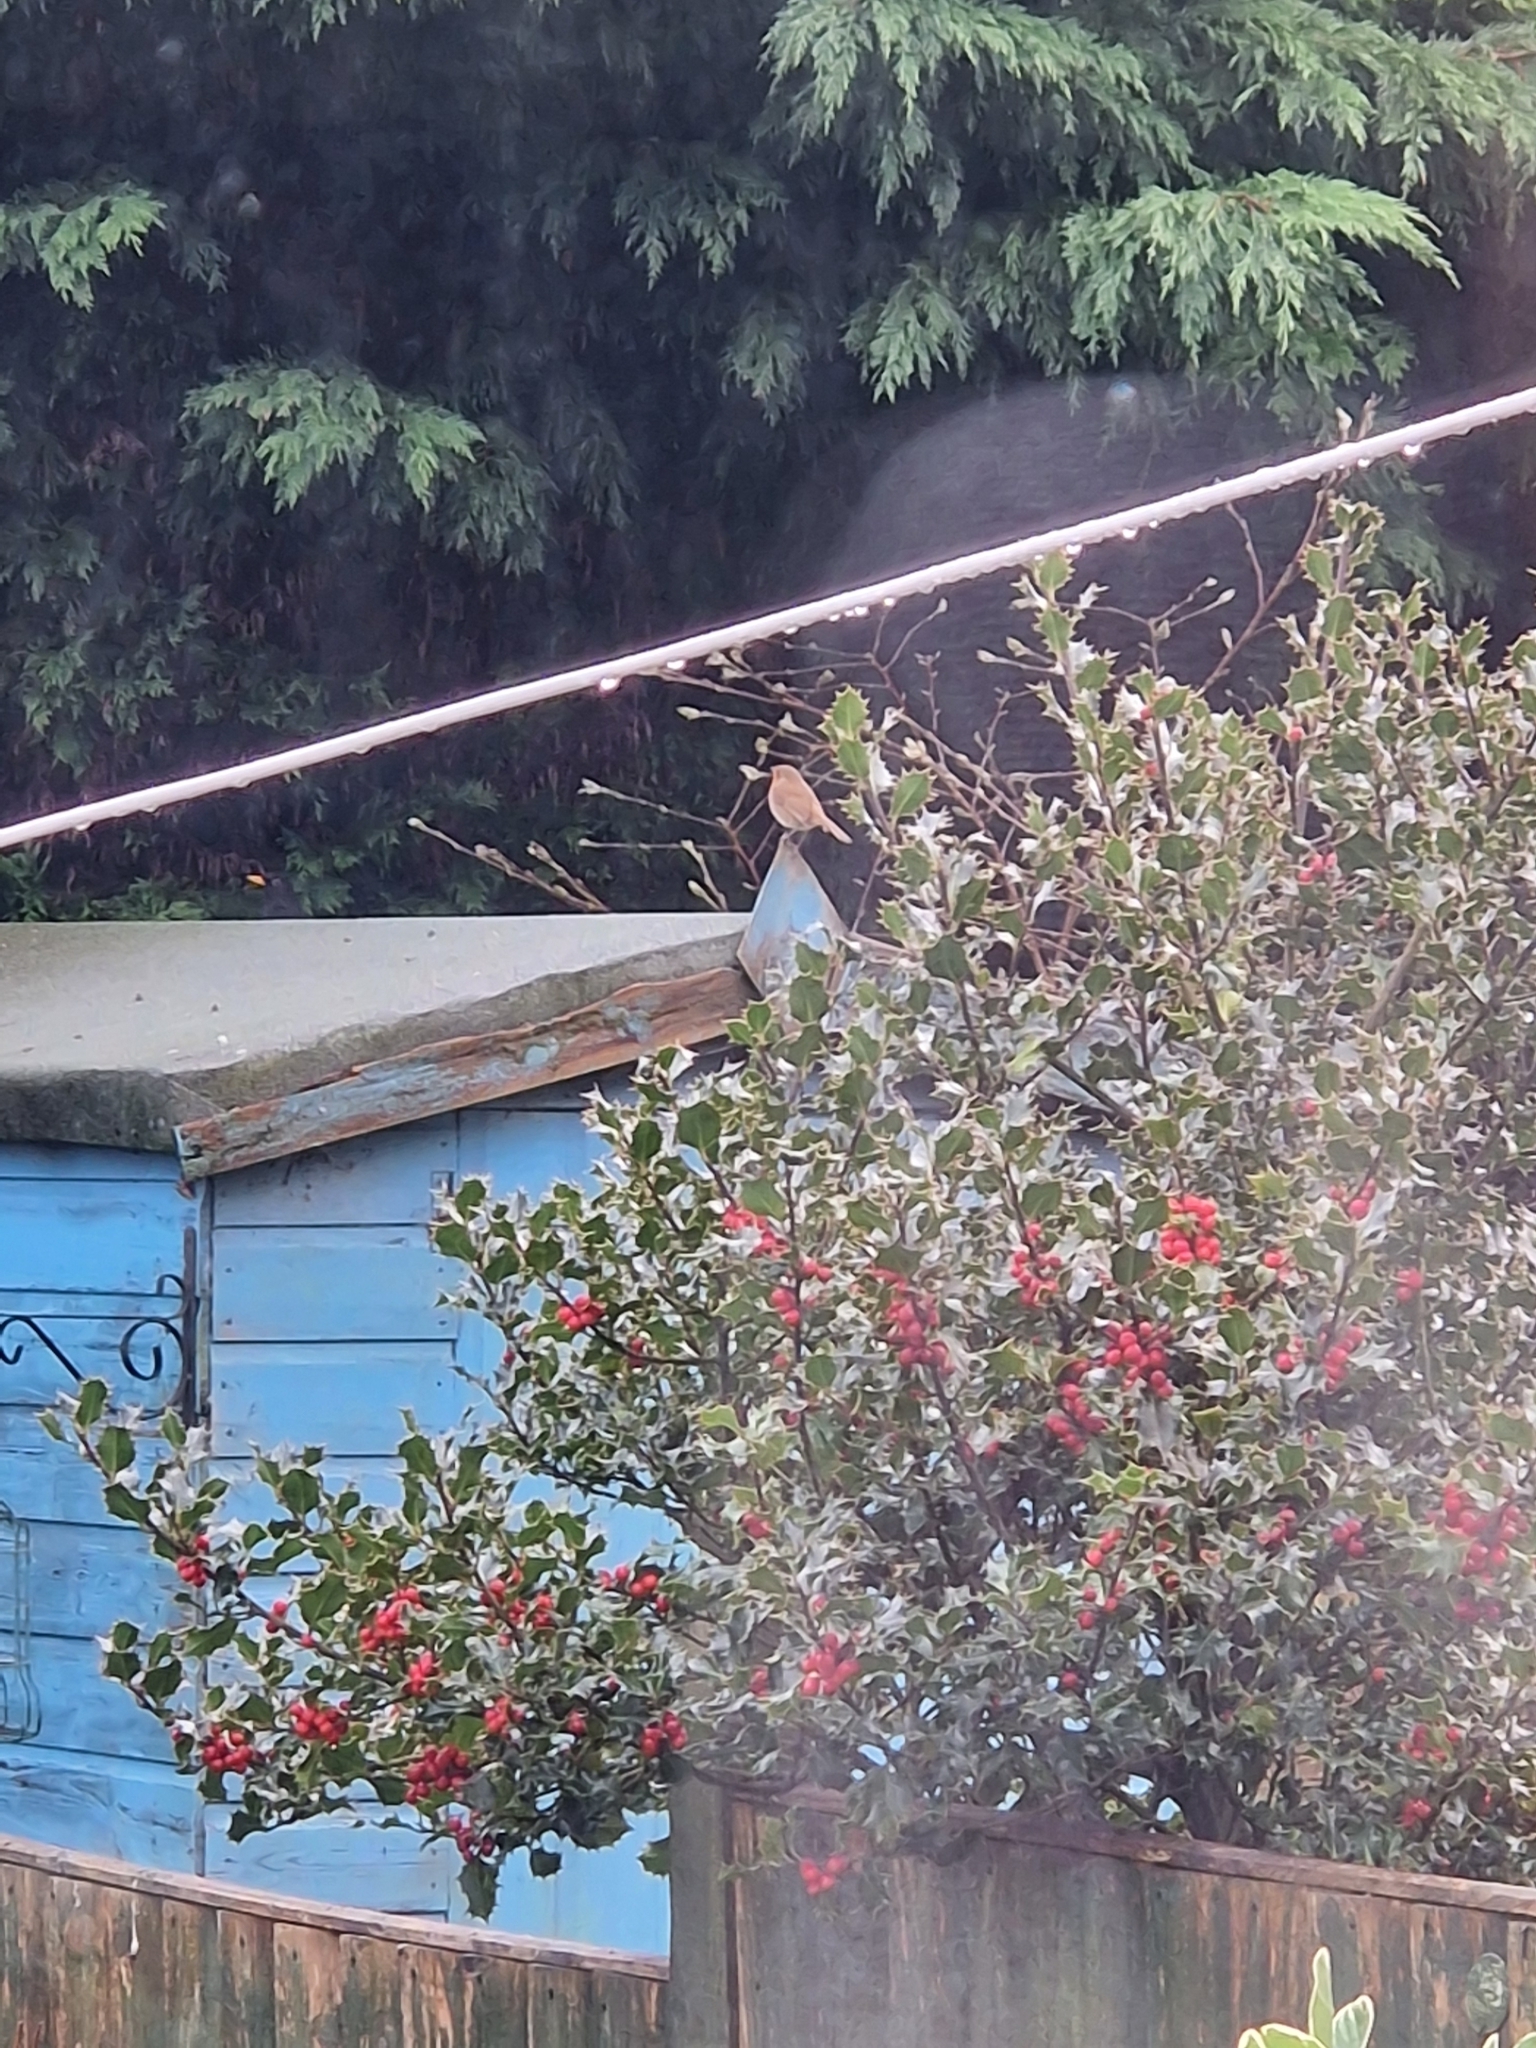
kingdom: Animalia
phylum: Chordata
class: Aves
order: Passeriformes
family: Muscicapidae
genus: Erithacus
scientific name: Erithacus rubecula
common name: European robin
